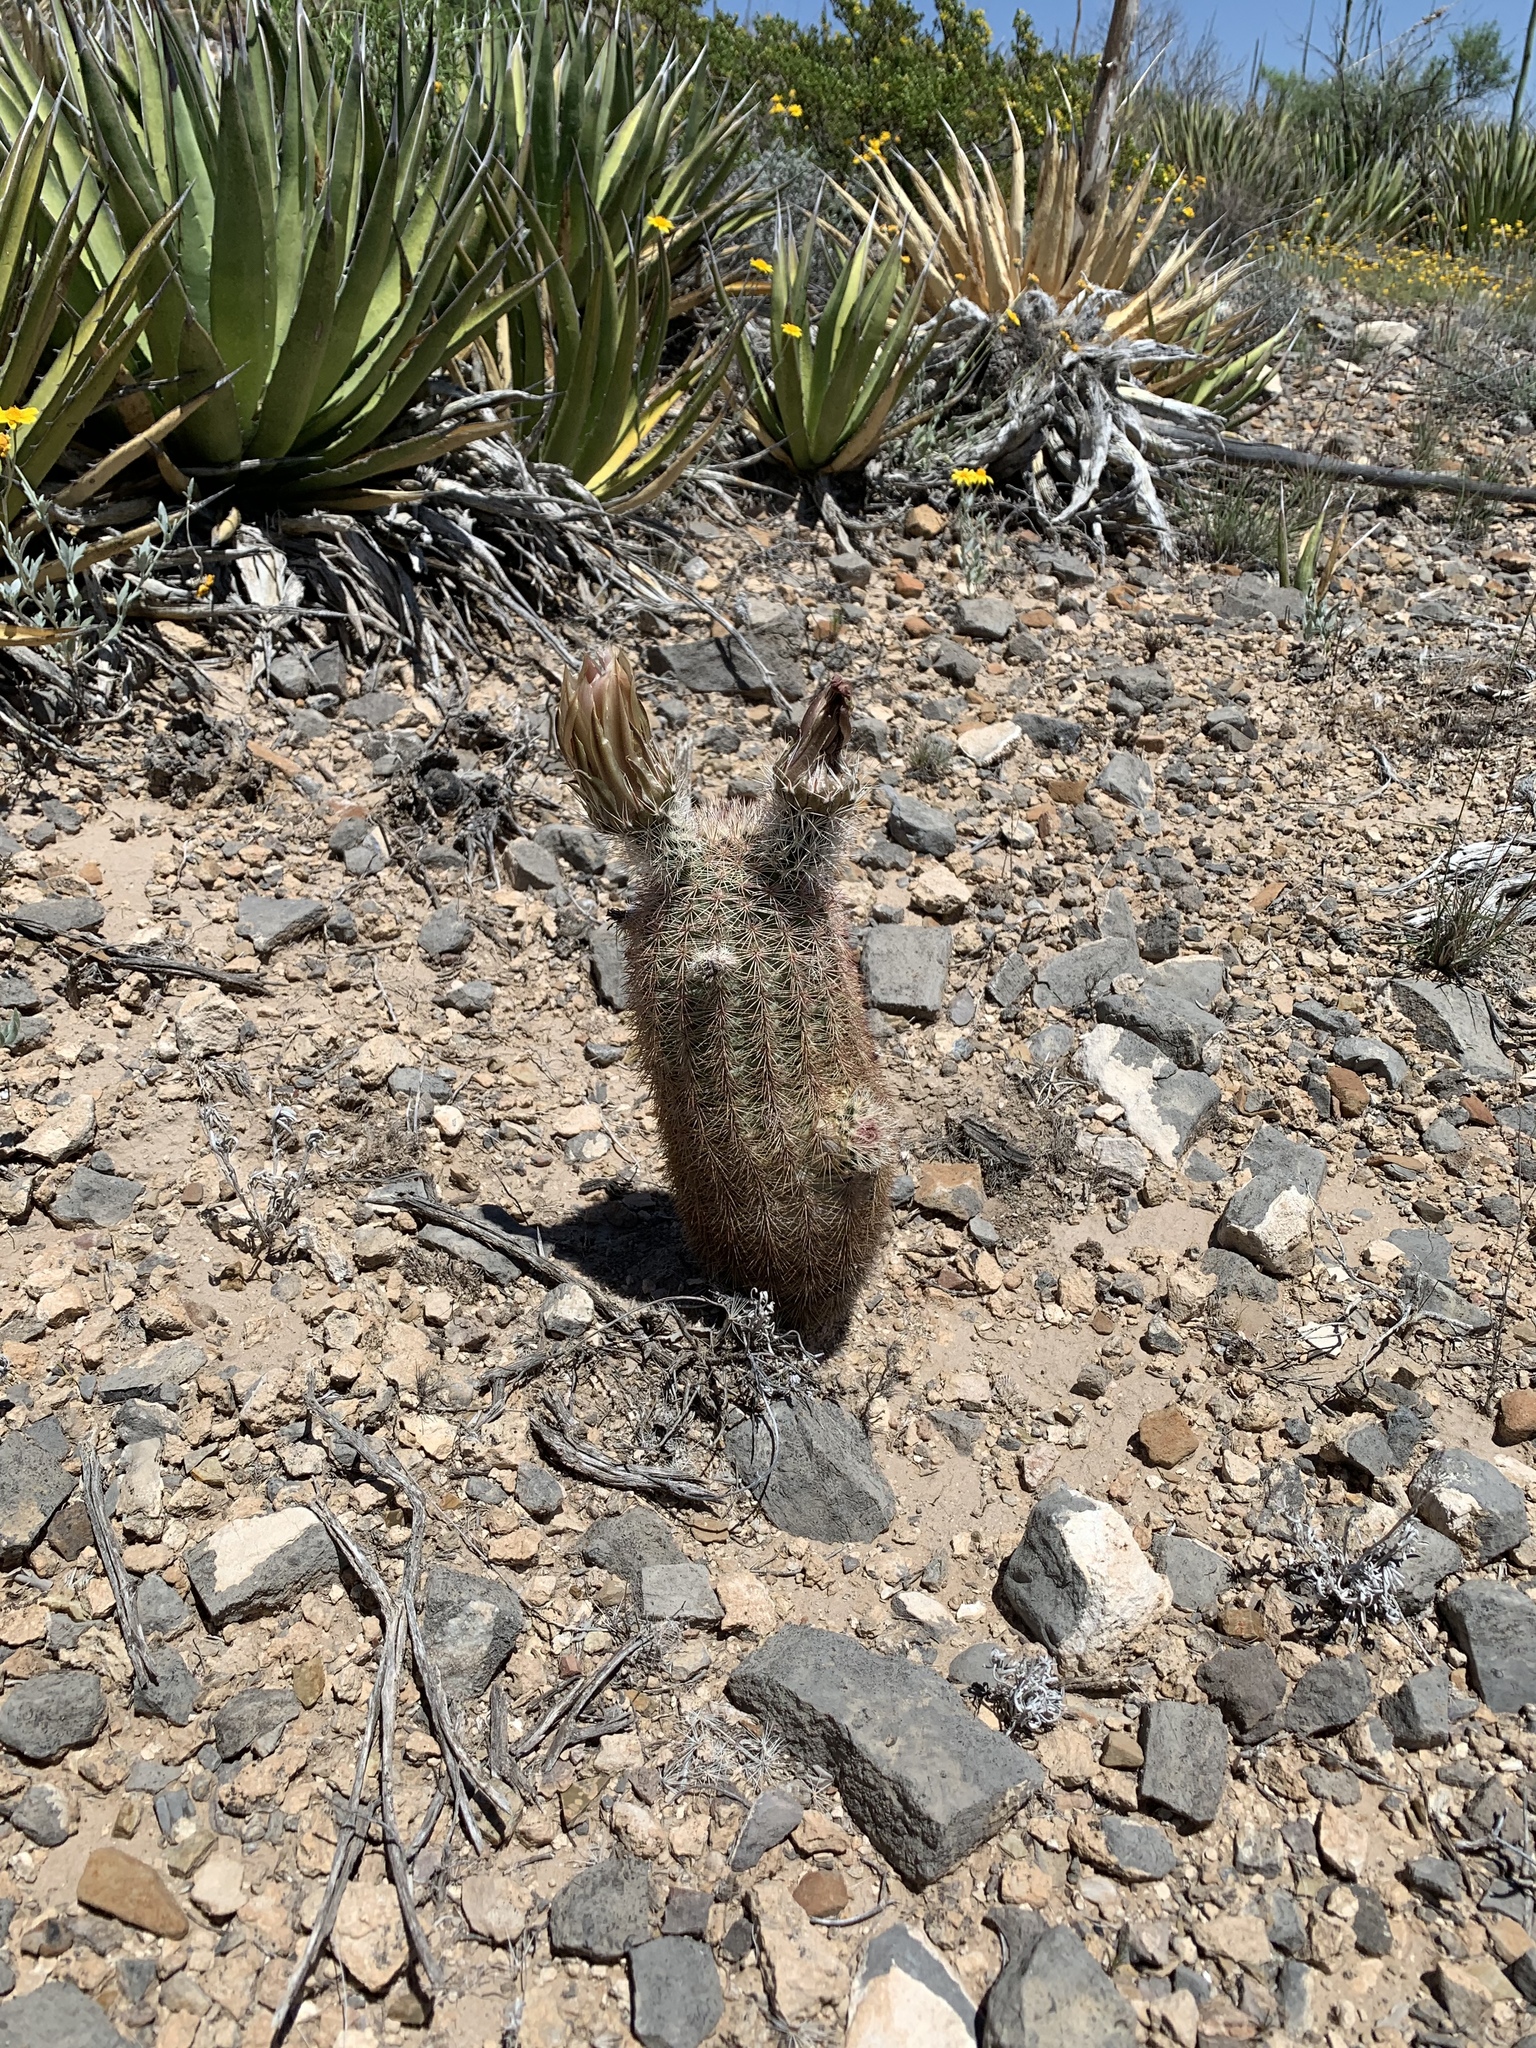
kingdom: Plantae
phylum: Tracheophyta
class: Magnoliopsida
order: Caryophyllales
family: Cactaceae
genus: Echinocereus
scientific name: Echinocereus dasyacanthus
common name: Spiny hedgehog cactus
